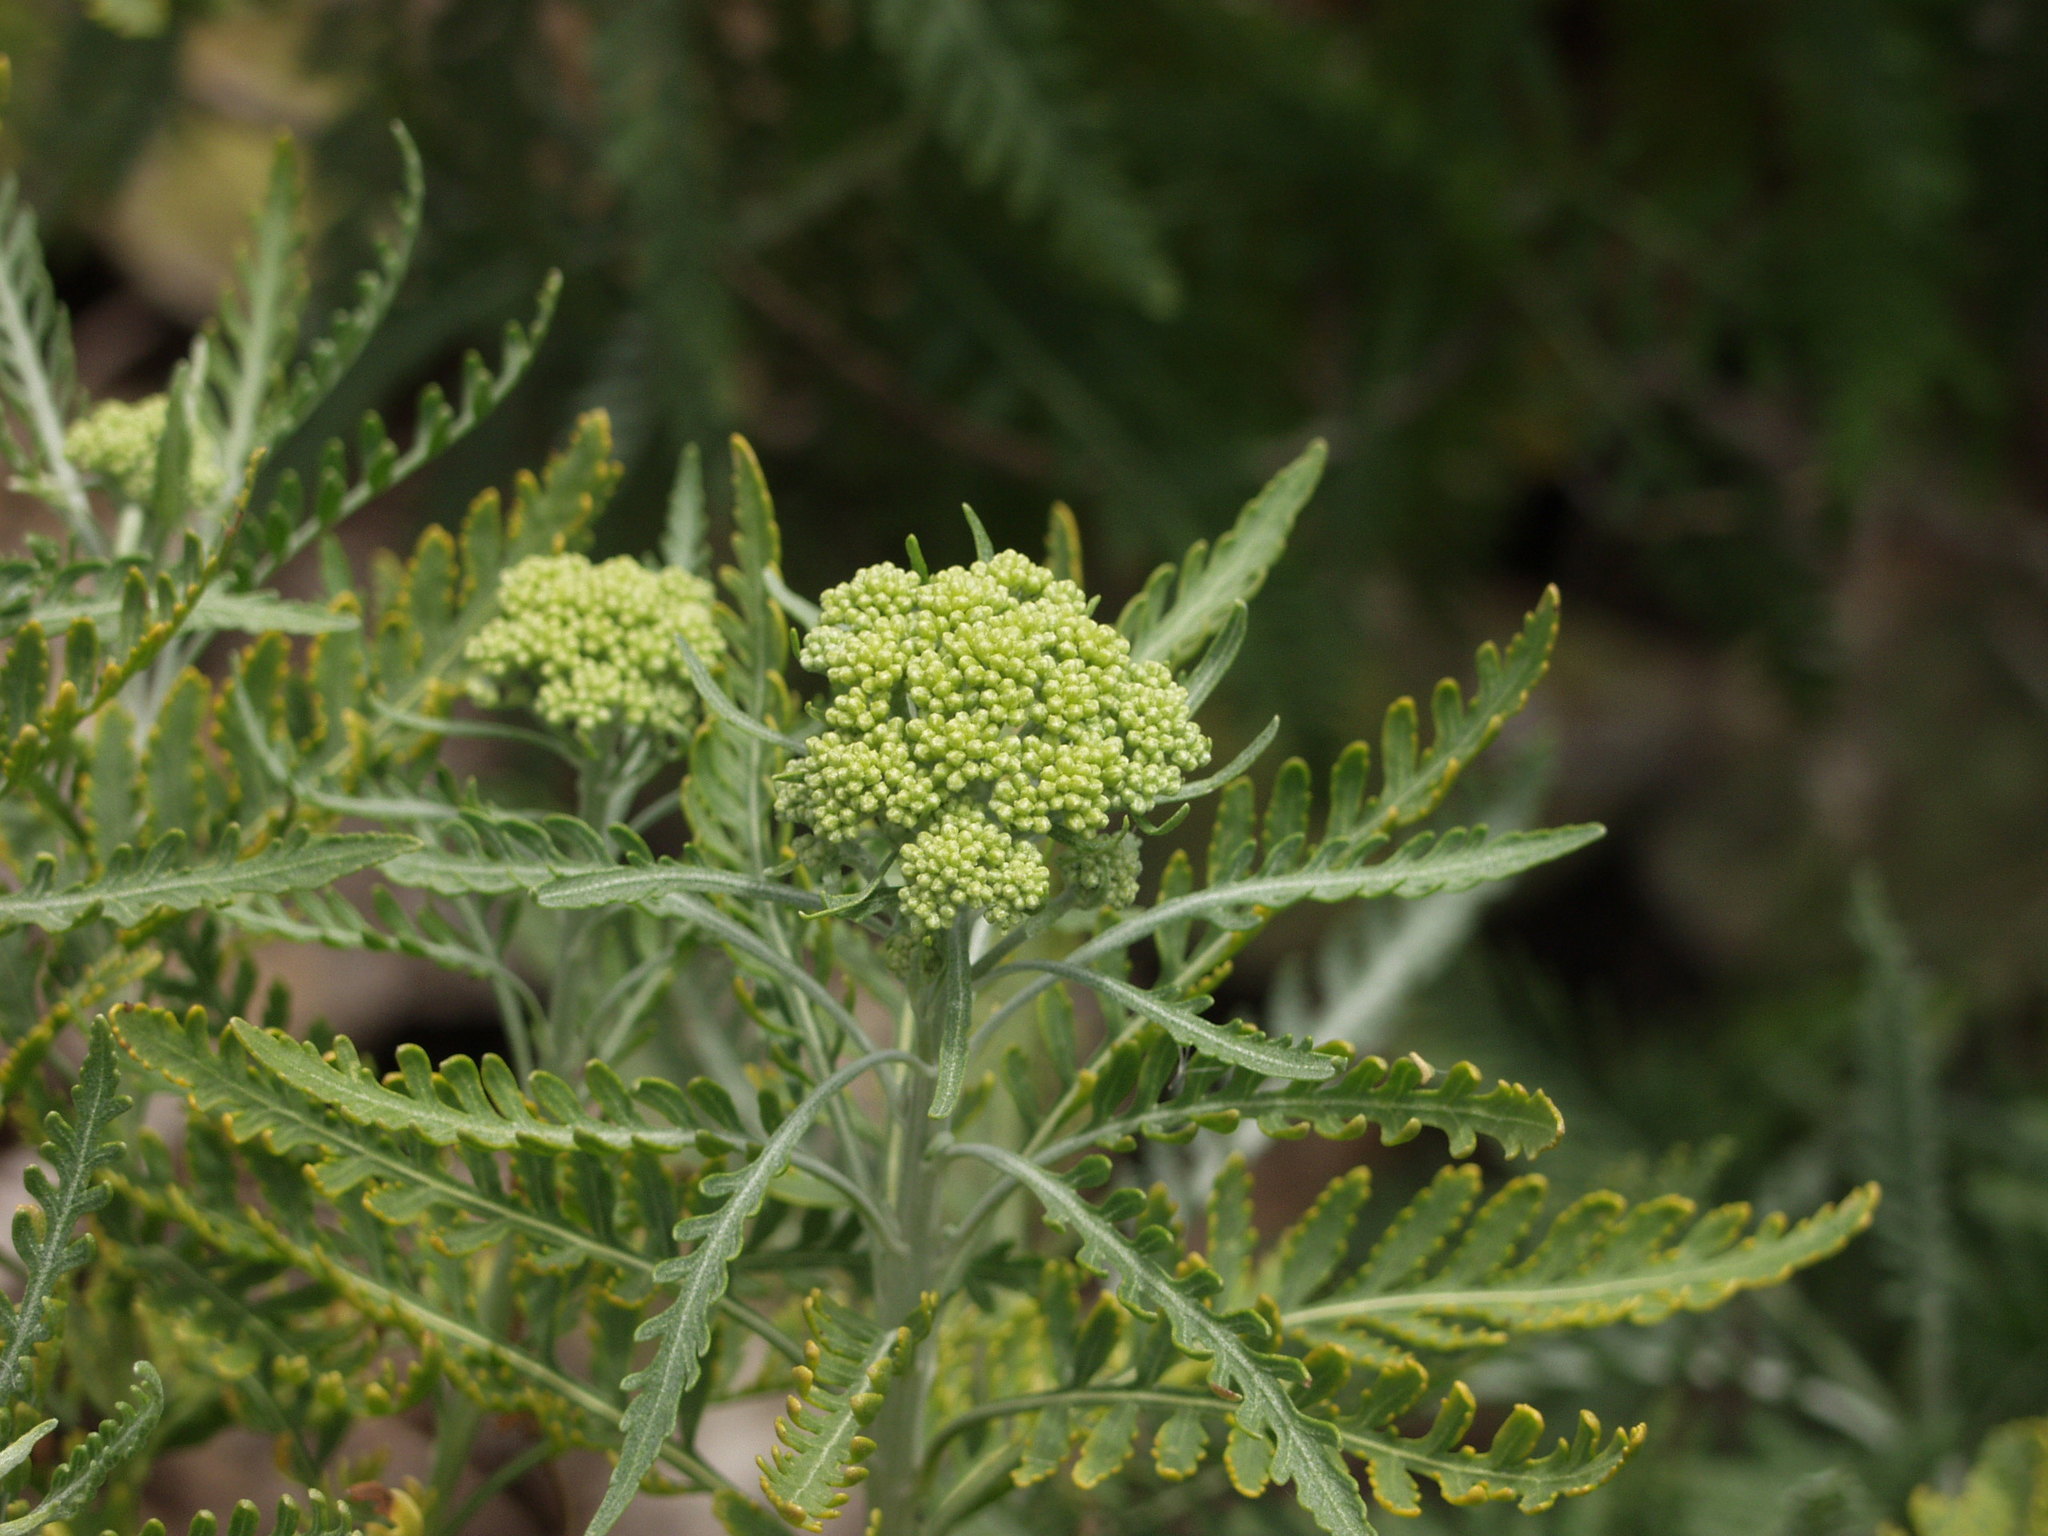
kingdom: Plantae
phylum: Tracheophyta
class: Magnoliopsida
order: Asterales
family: Asteraceae
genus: Gonospermum
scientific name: Gonospermum canariense
